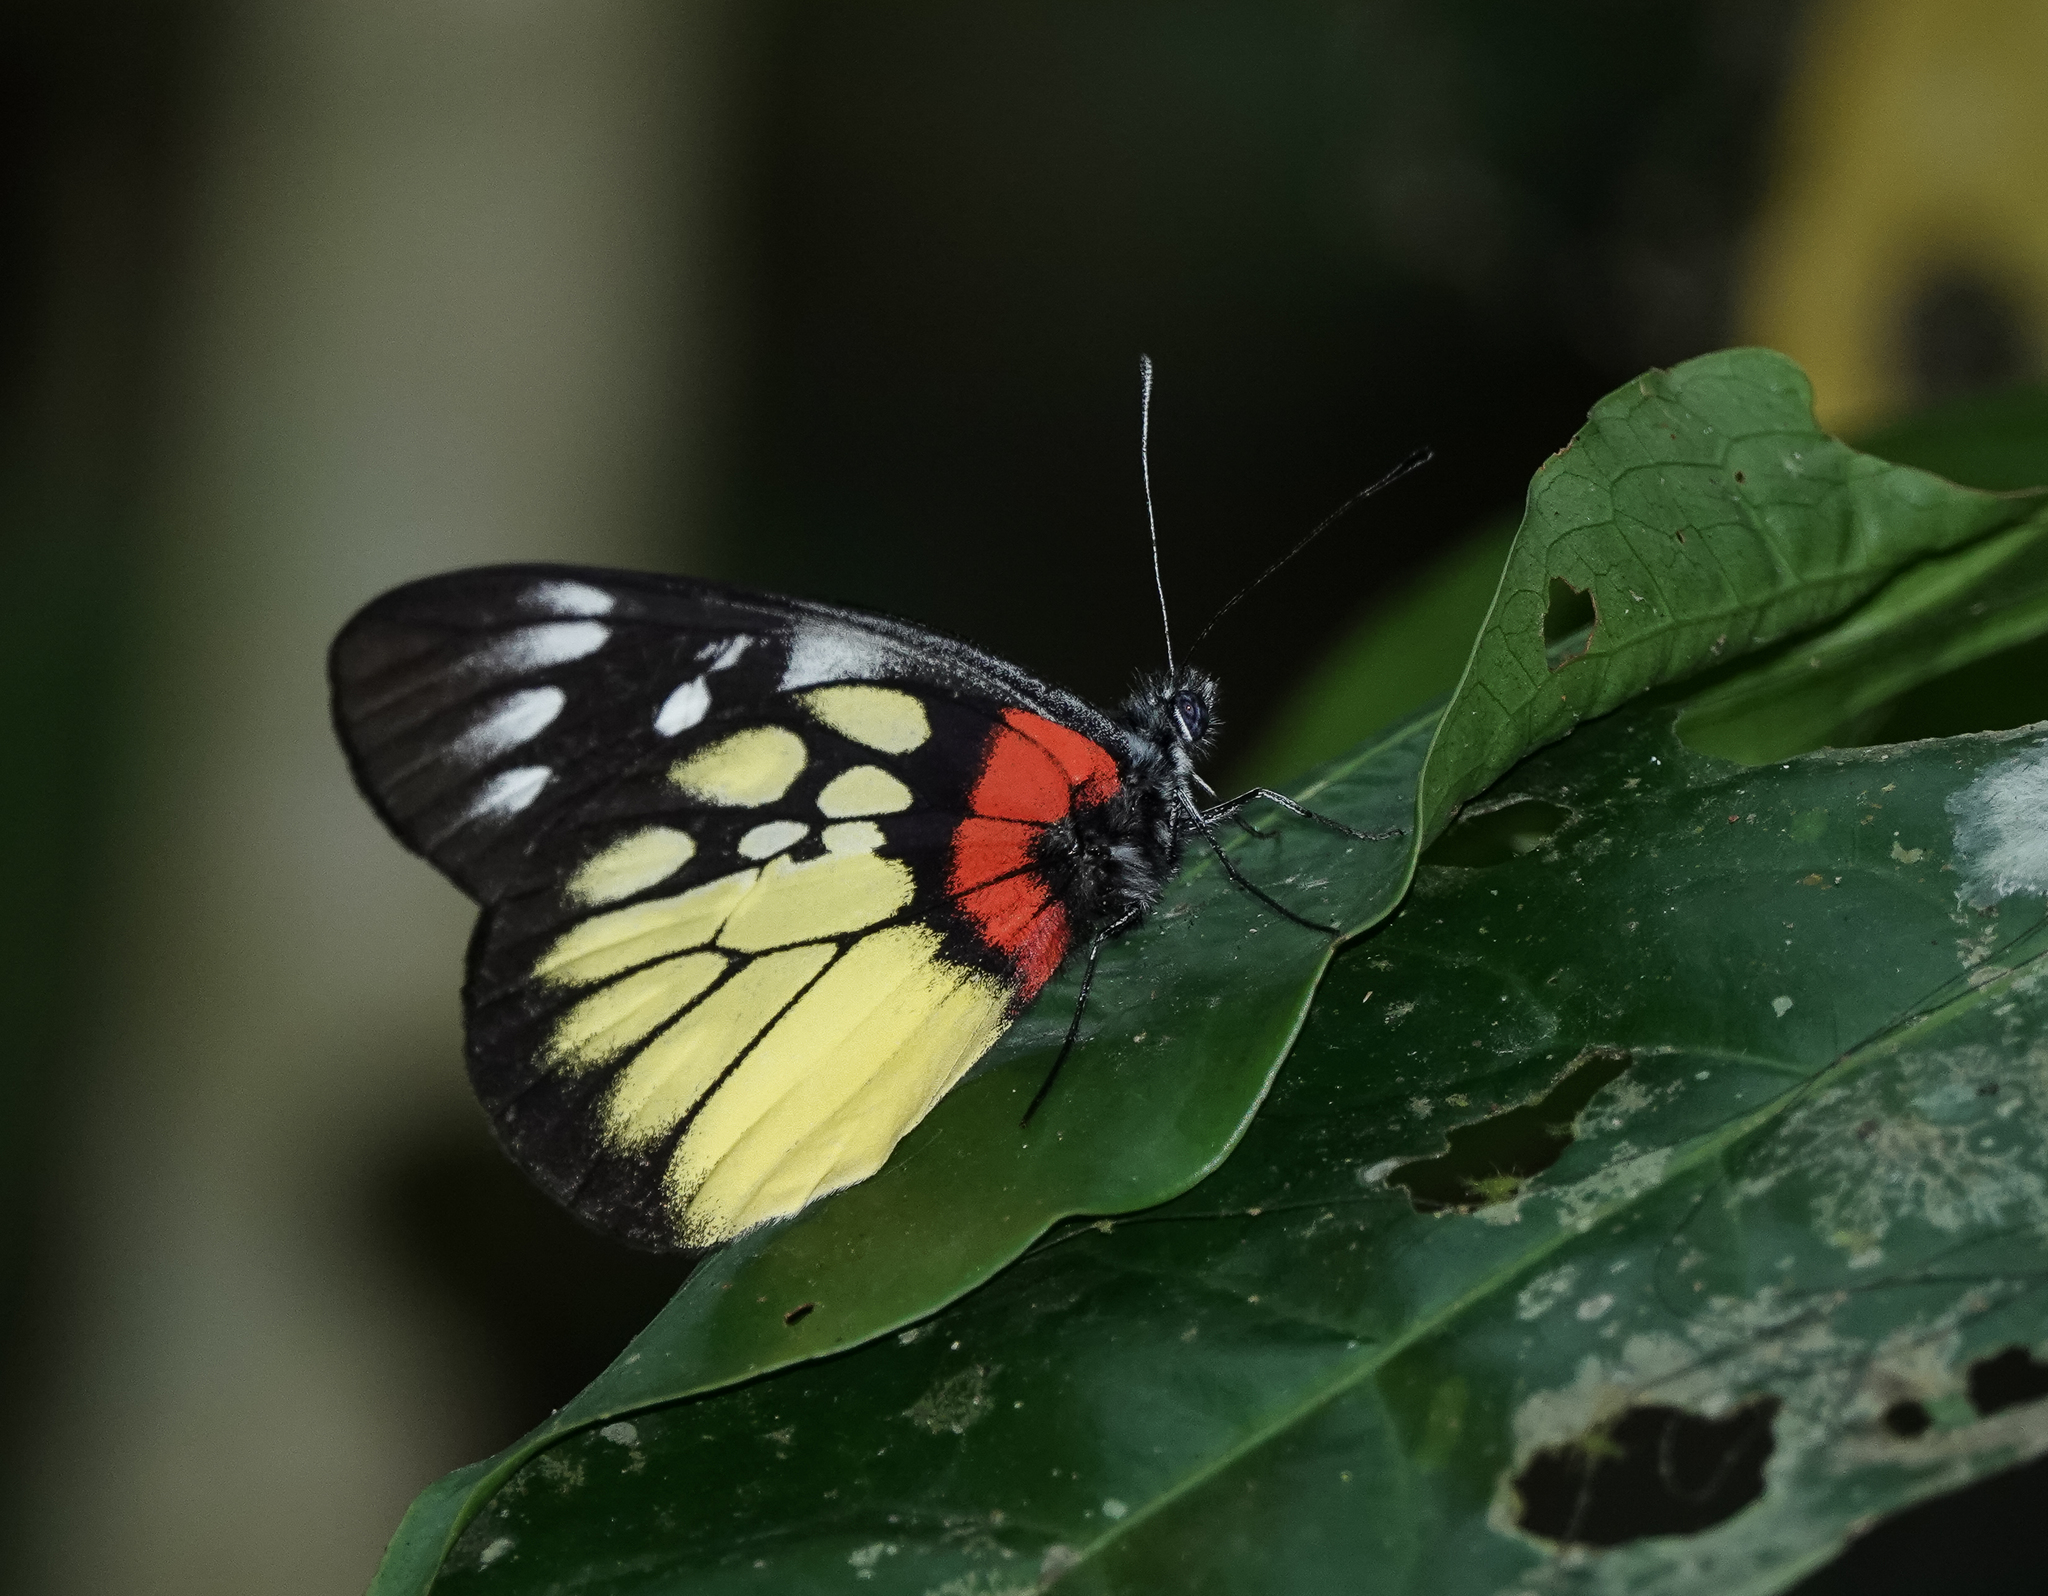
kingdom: Animalia
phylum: Arthropoda
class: Insecta
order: Lepidoptera
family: Pieridae
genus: Delias
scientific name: Delias pasithoe
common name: Red-base jezebel
